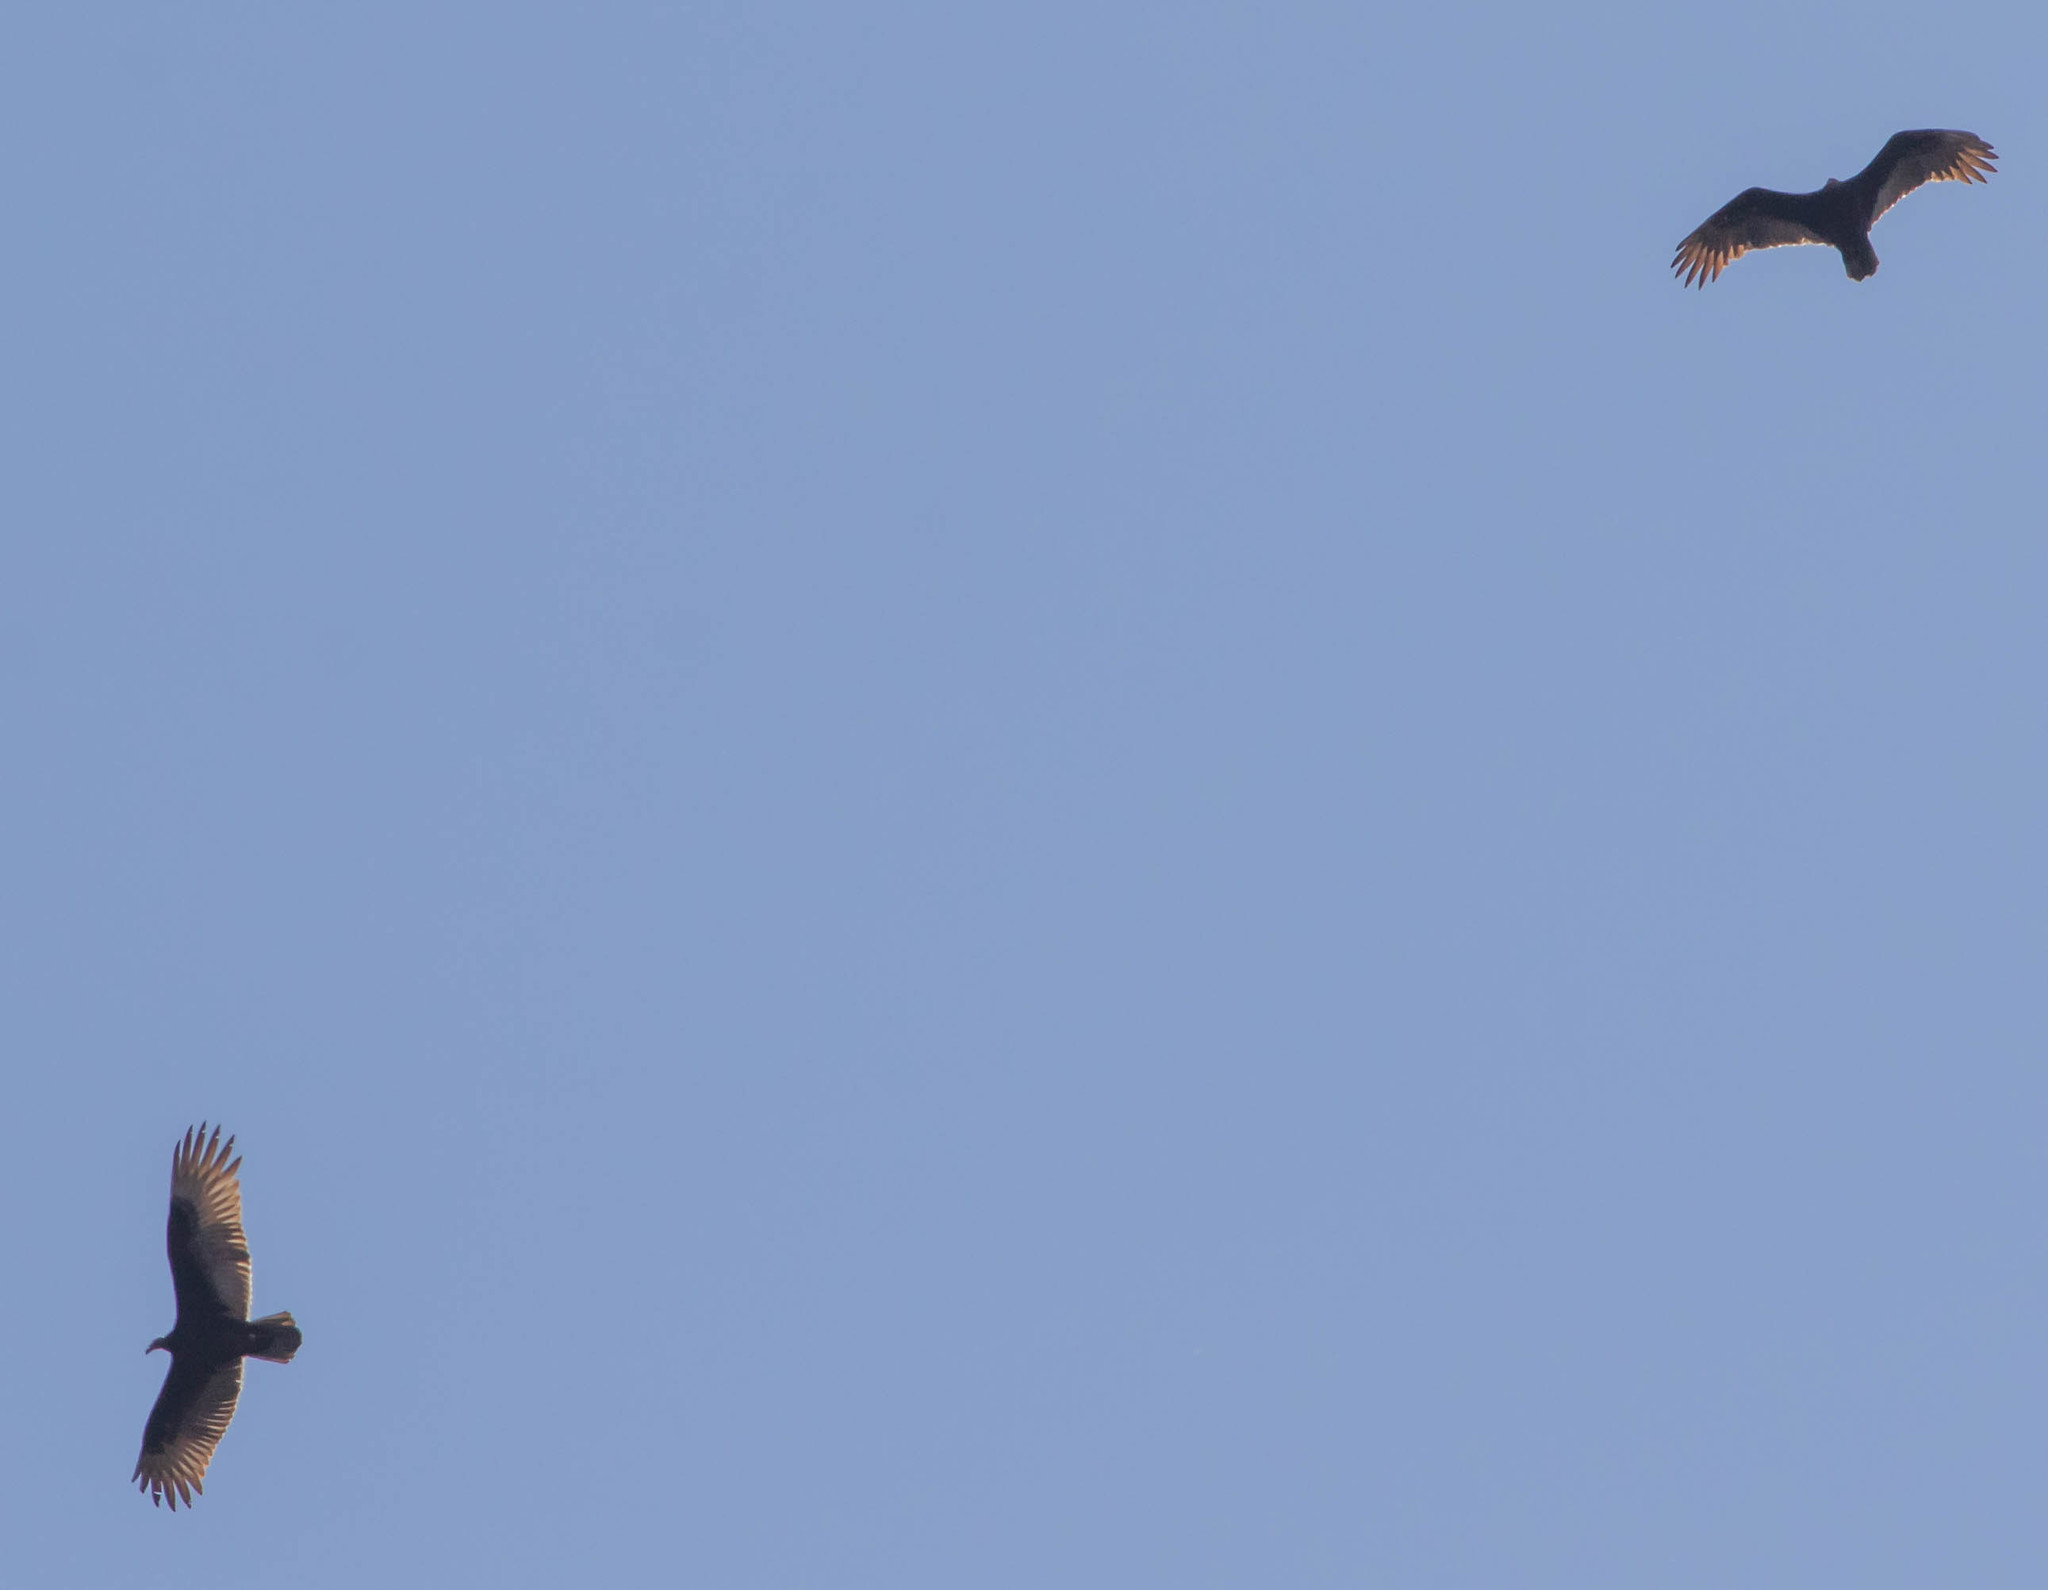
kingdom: Animalia
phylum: Chordata
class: Aves
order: Accipitriformes
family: Cathartidae
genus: Cathartes
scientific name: Cathartes aura
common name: Turkey vulture
